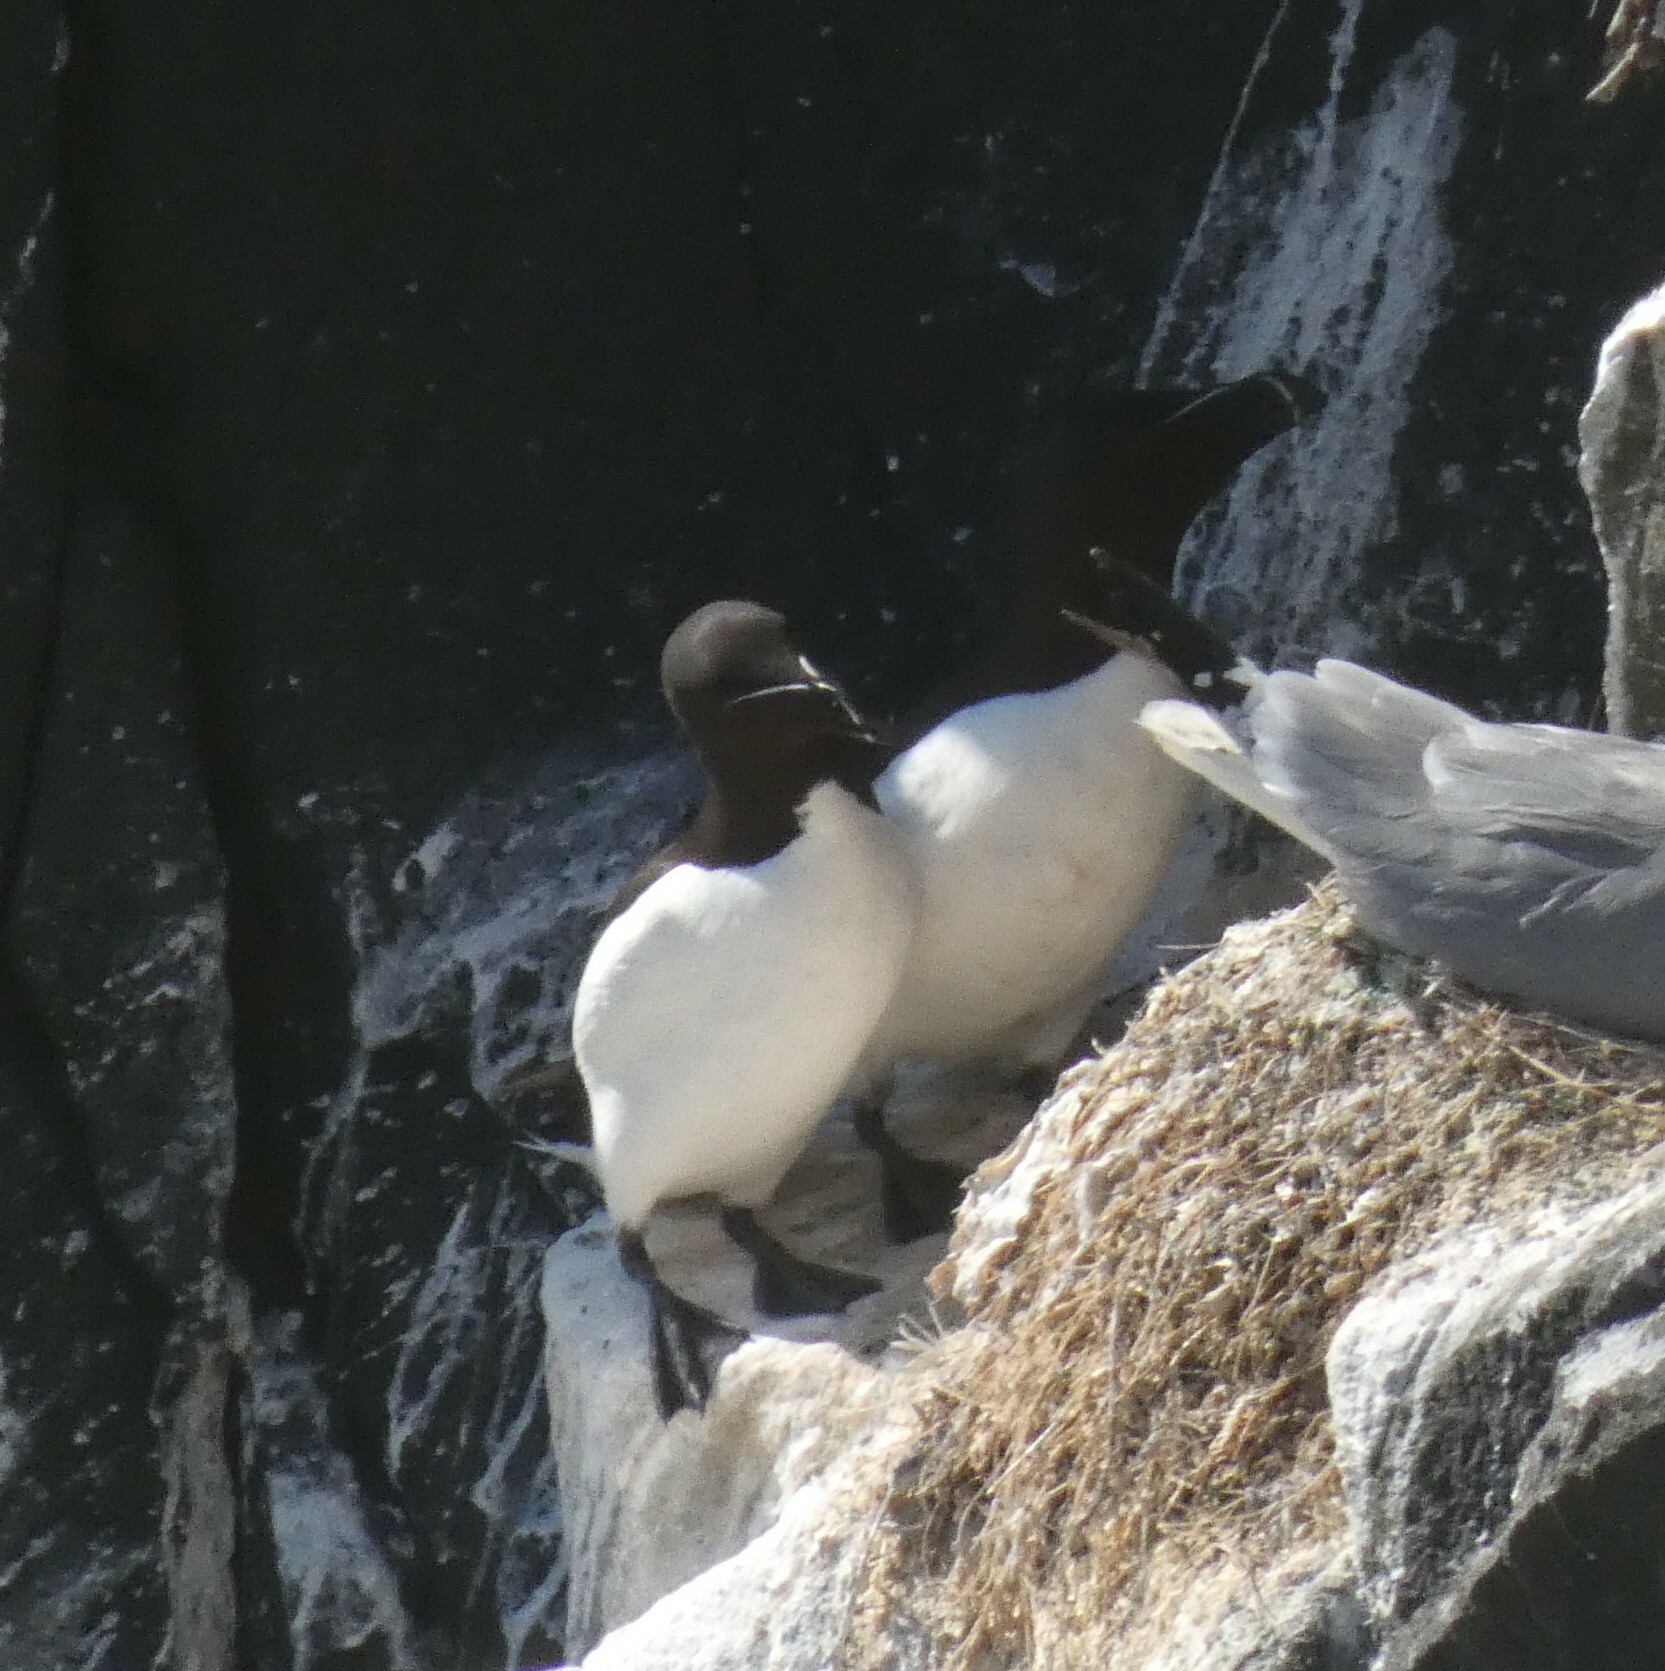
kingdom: Animalia
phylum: Chordata
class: Aves
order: Charadriiformes
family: Alcidae
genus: Alca
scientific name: Alca torda
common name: Razorbill
